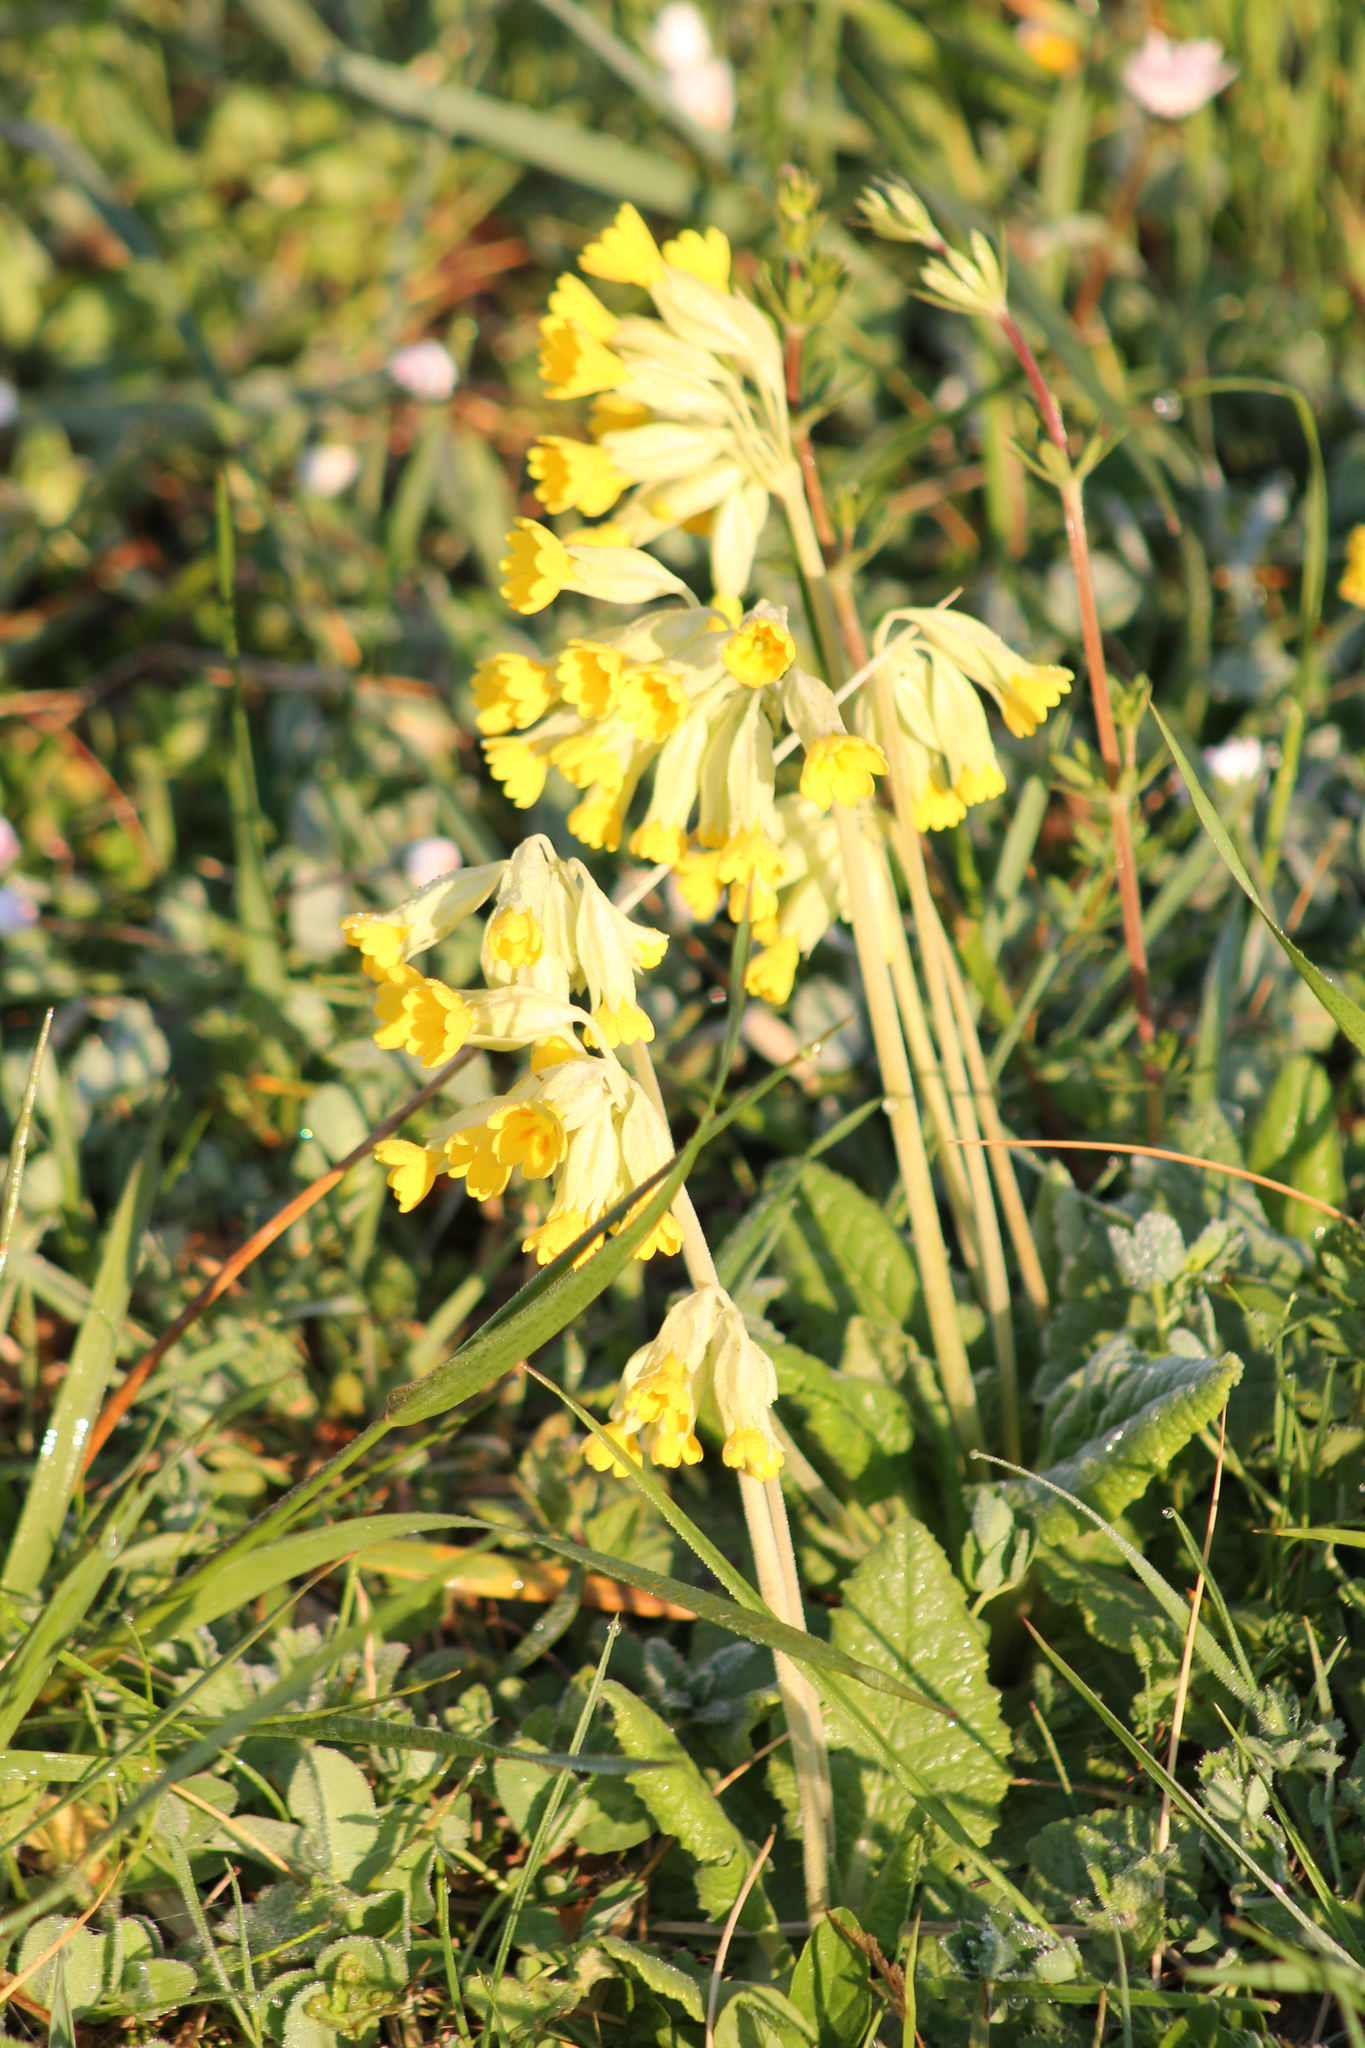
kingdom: Plantae
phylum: Tracheophyta
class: Magnoliopsida
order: Ericales
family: Primulaceae
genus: Primula
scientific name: Primula veris
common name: Cowslip
